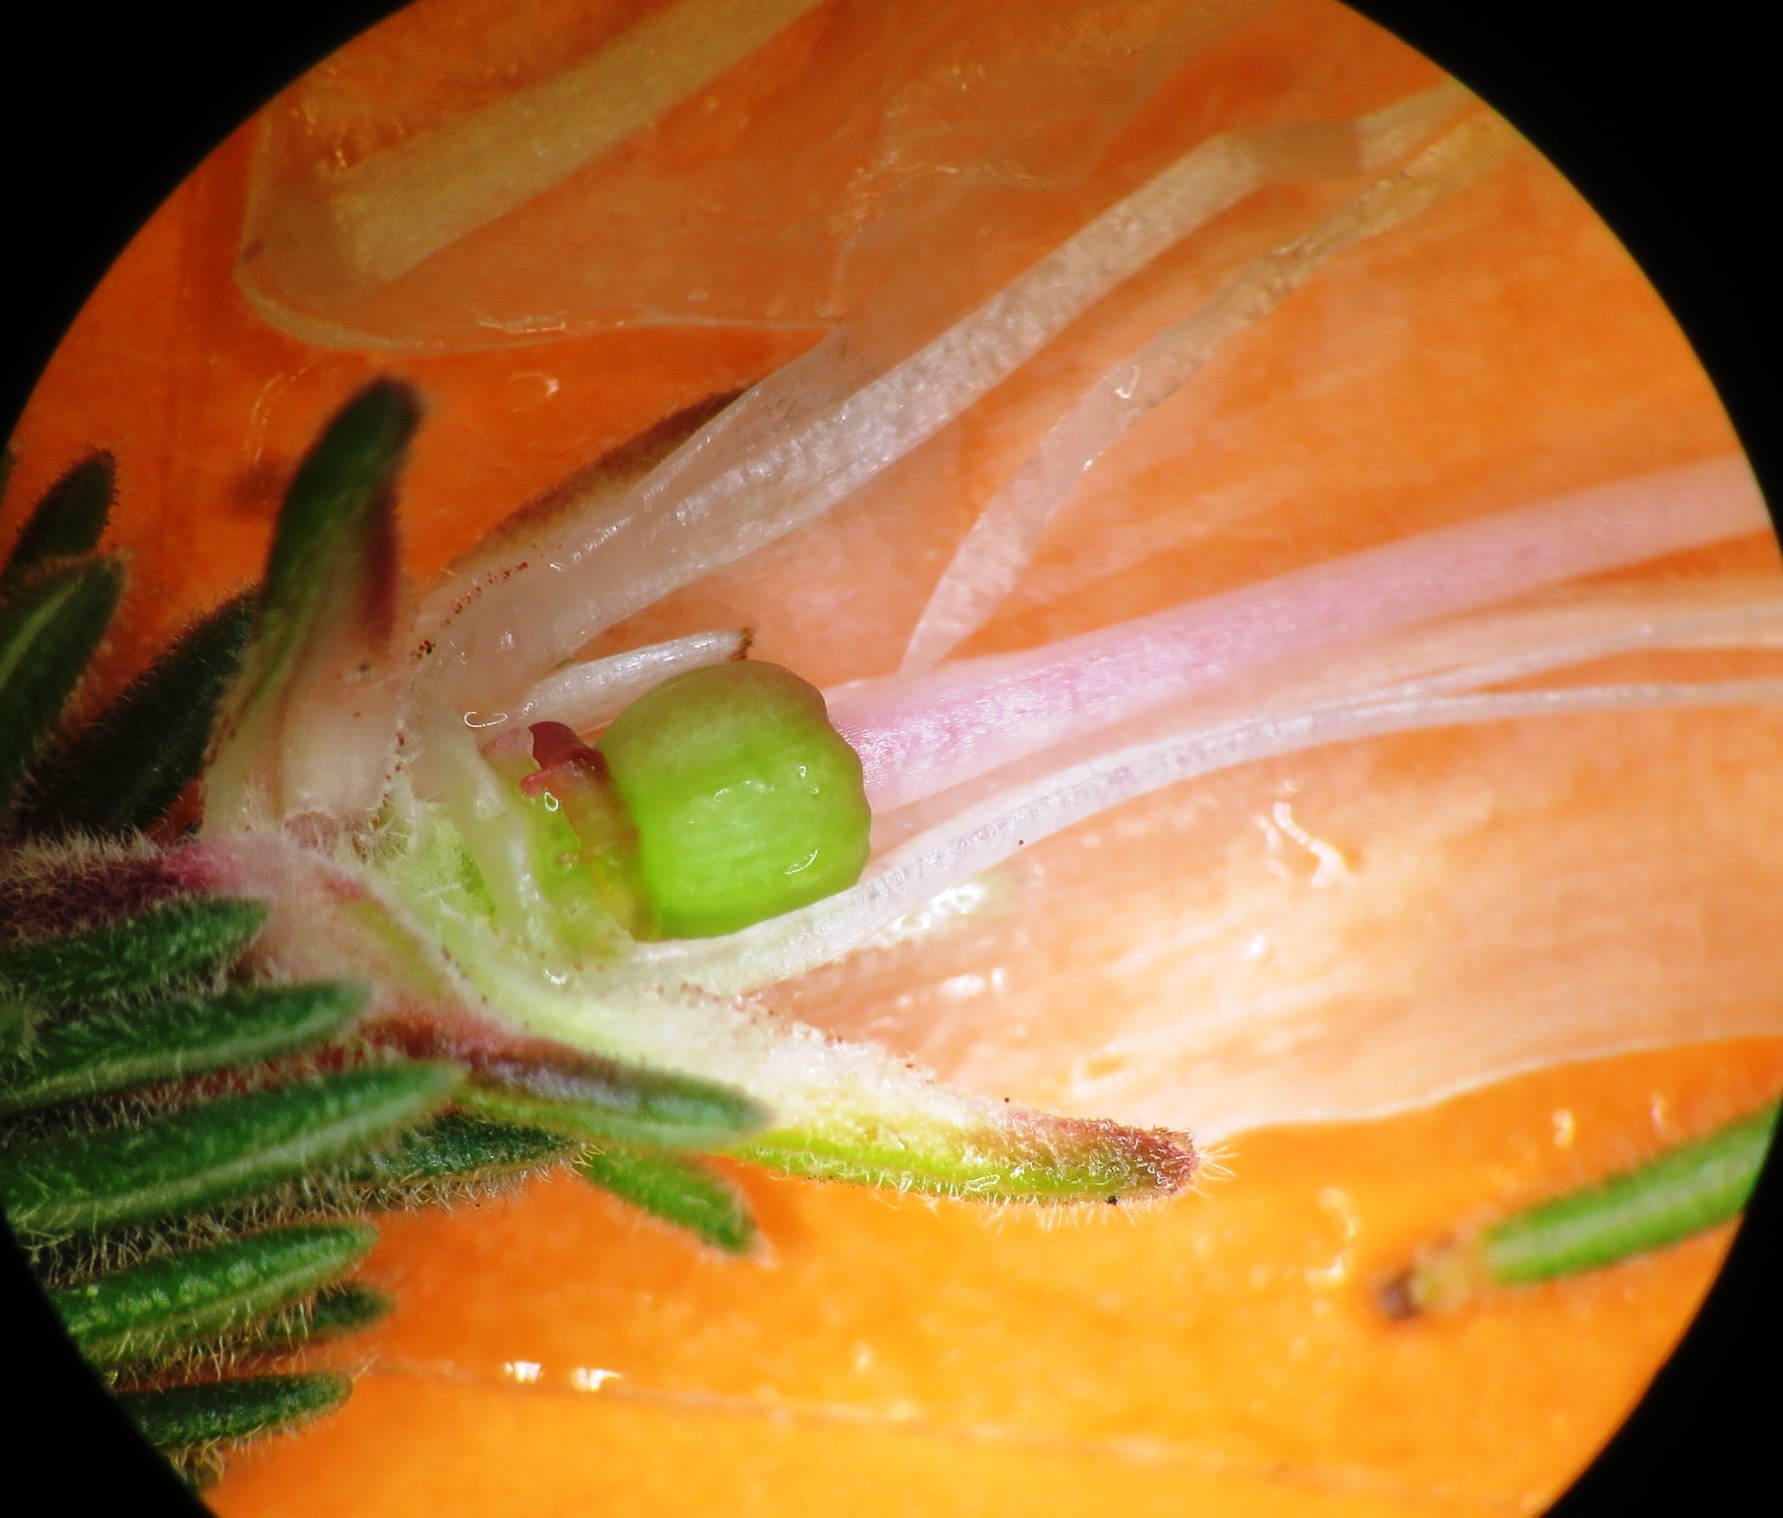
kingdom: Plantae
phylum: Tracheophyta
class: Magnoliopsida
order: Ericales
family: Ericaceae
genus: Erica
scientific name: Erica amidae
